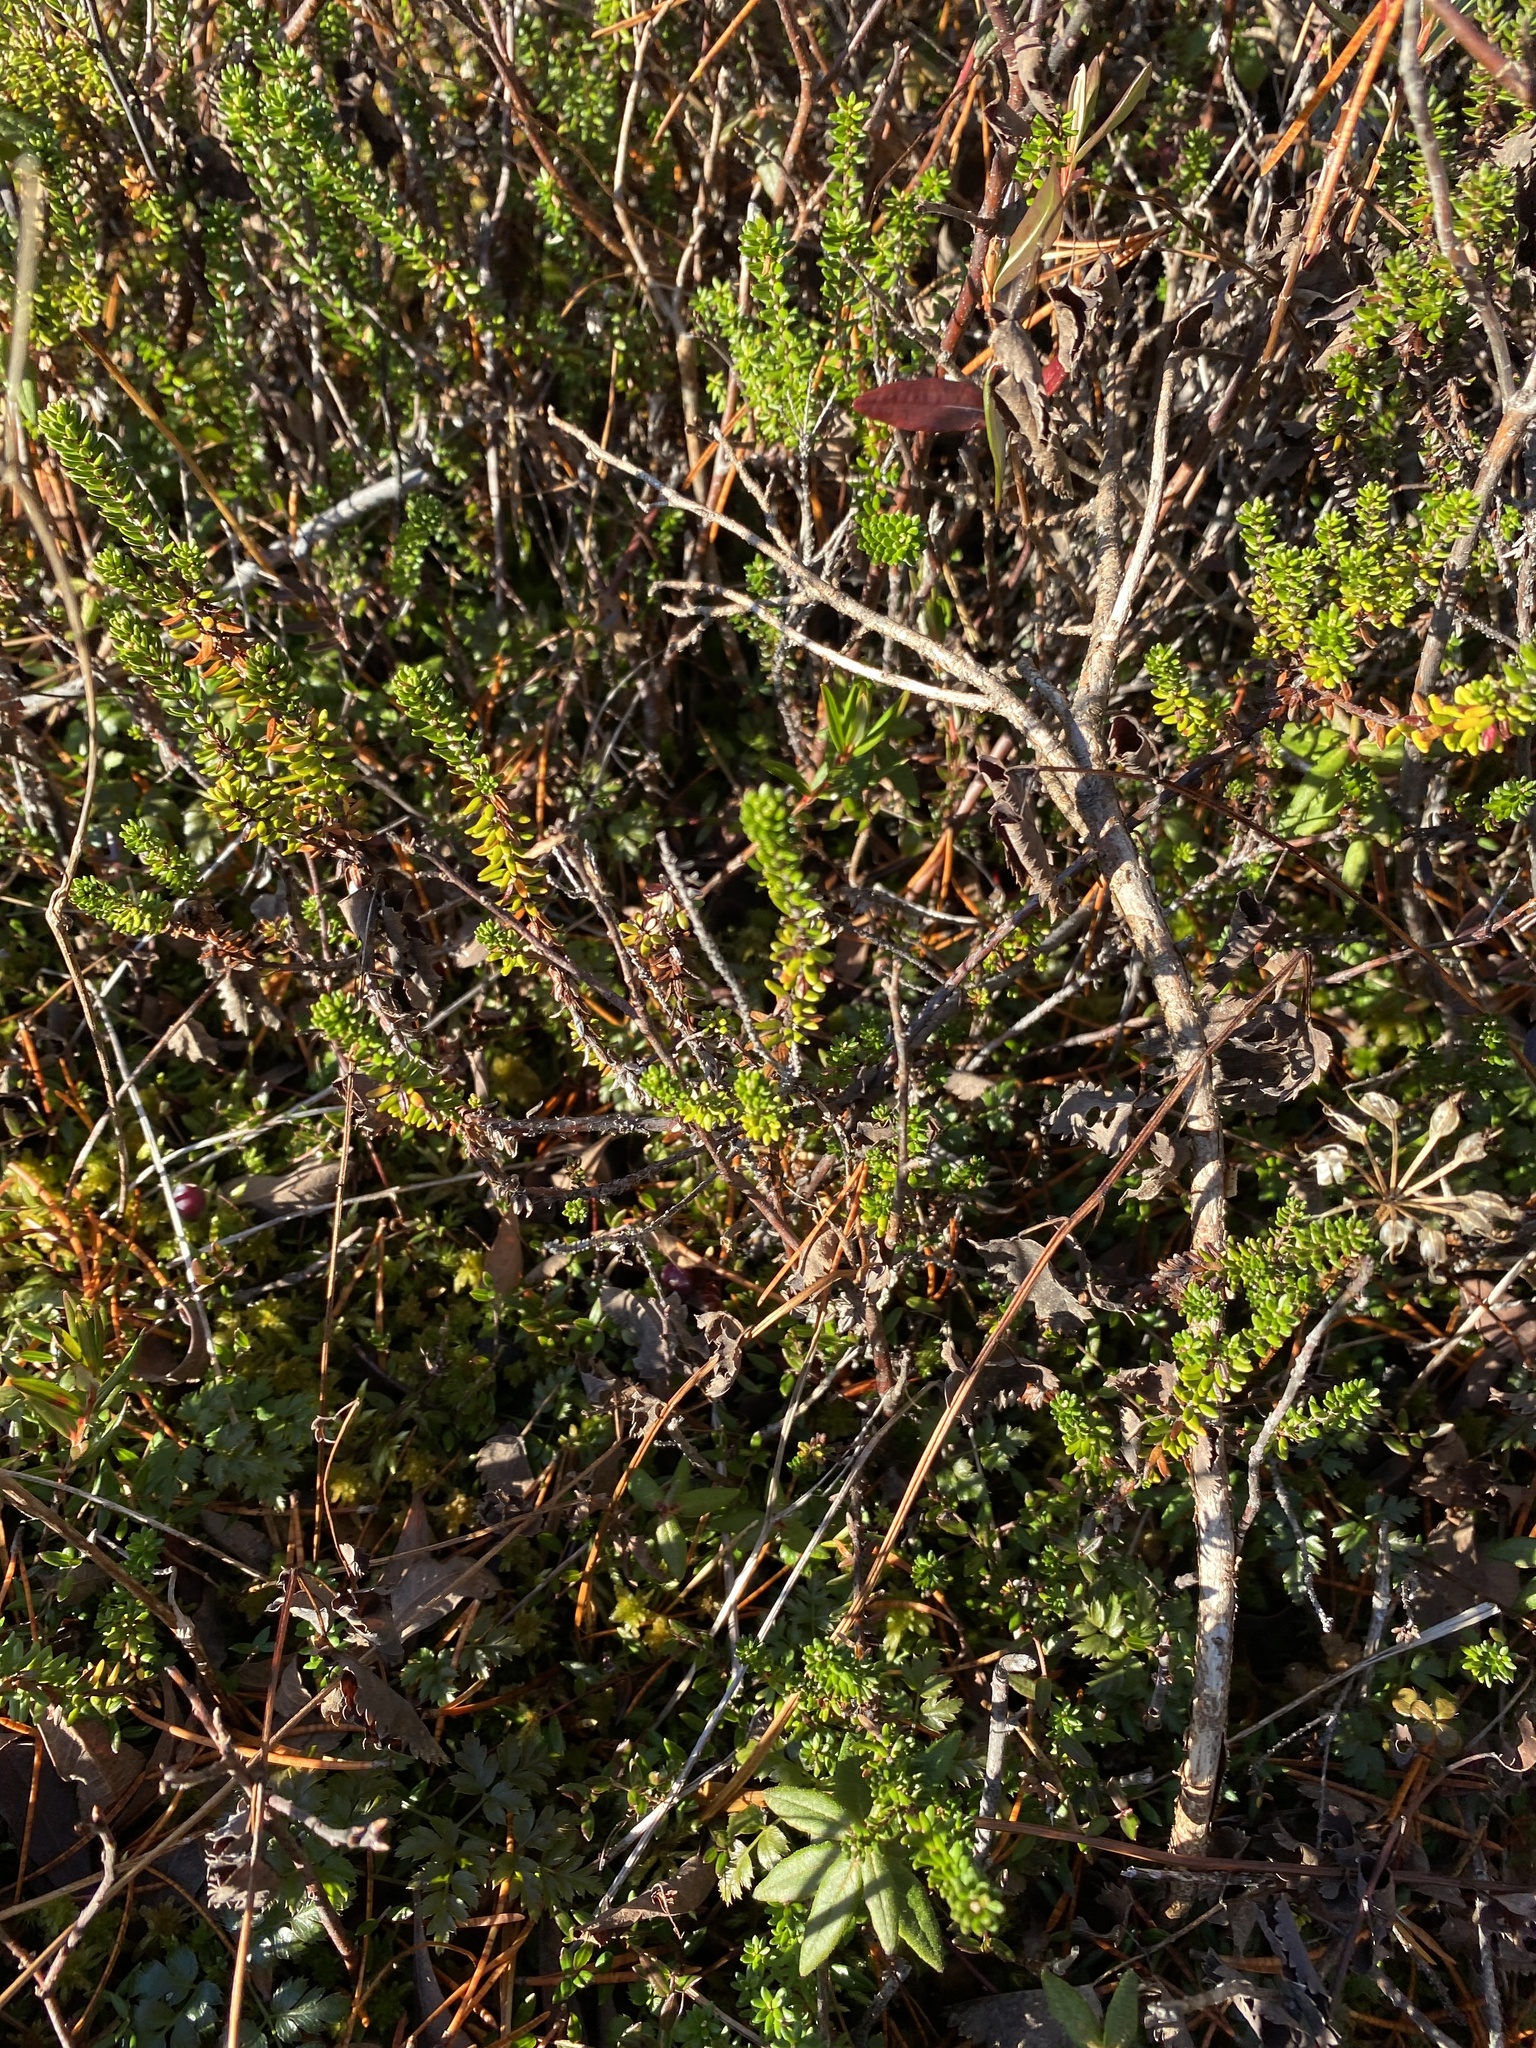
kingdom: Plantae
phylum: Tracheophyta
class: Magnoliopsida
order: Ericales
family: Ericaceae
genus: Empetrum
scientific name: Empetrum nigrum
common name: Black crowberry
